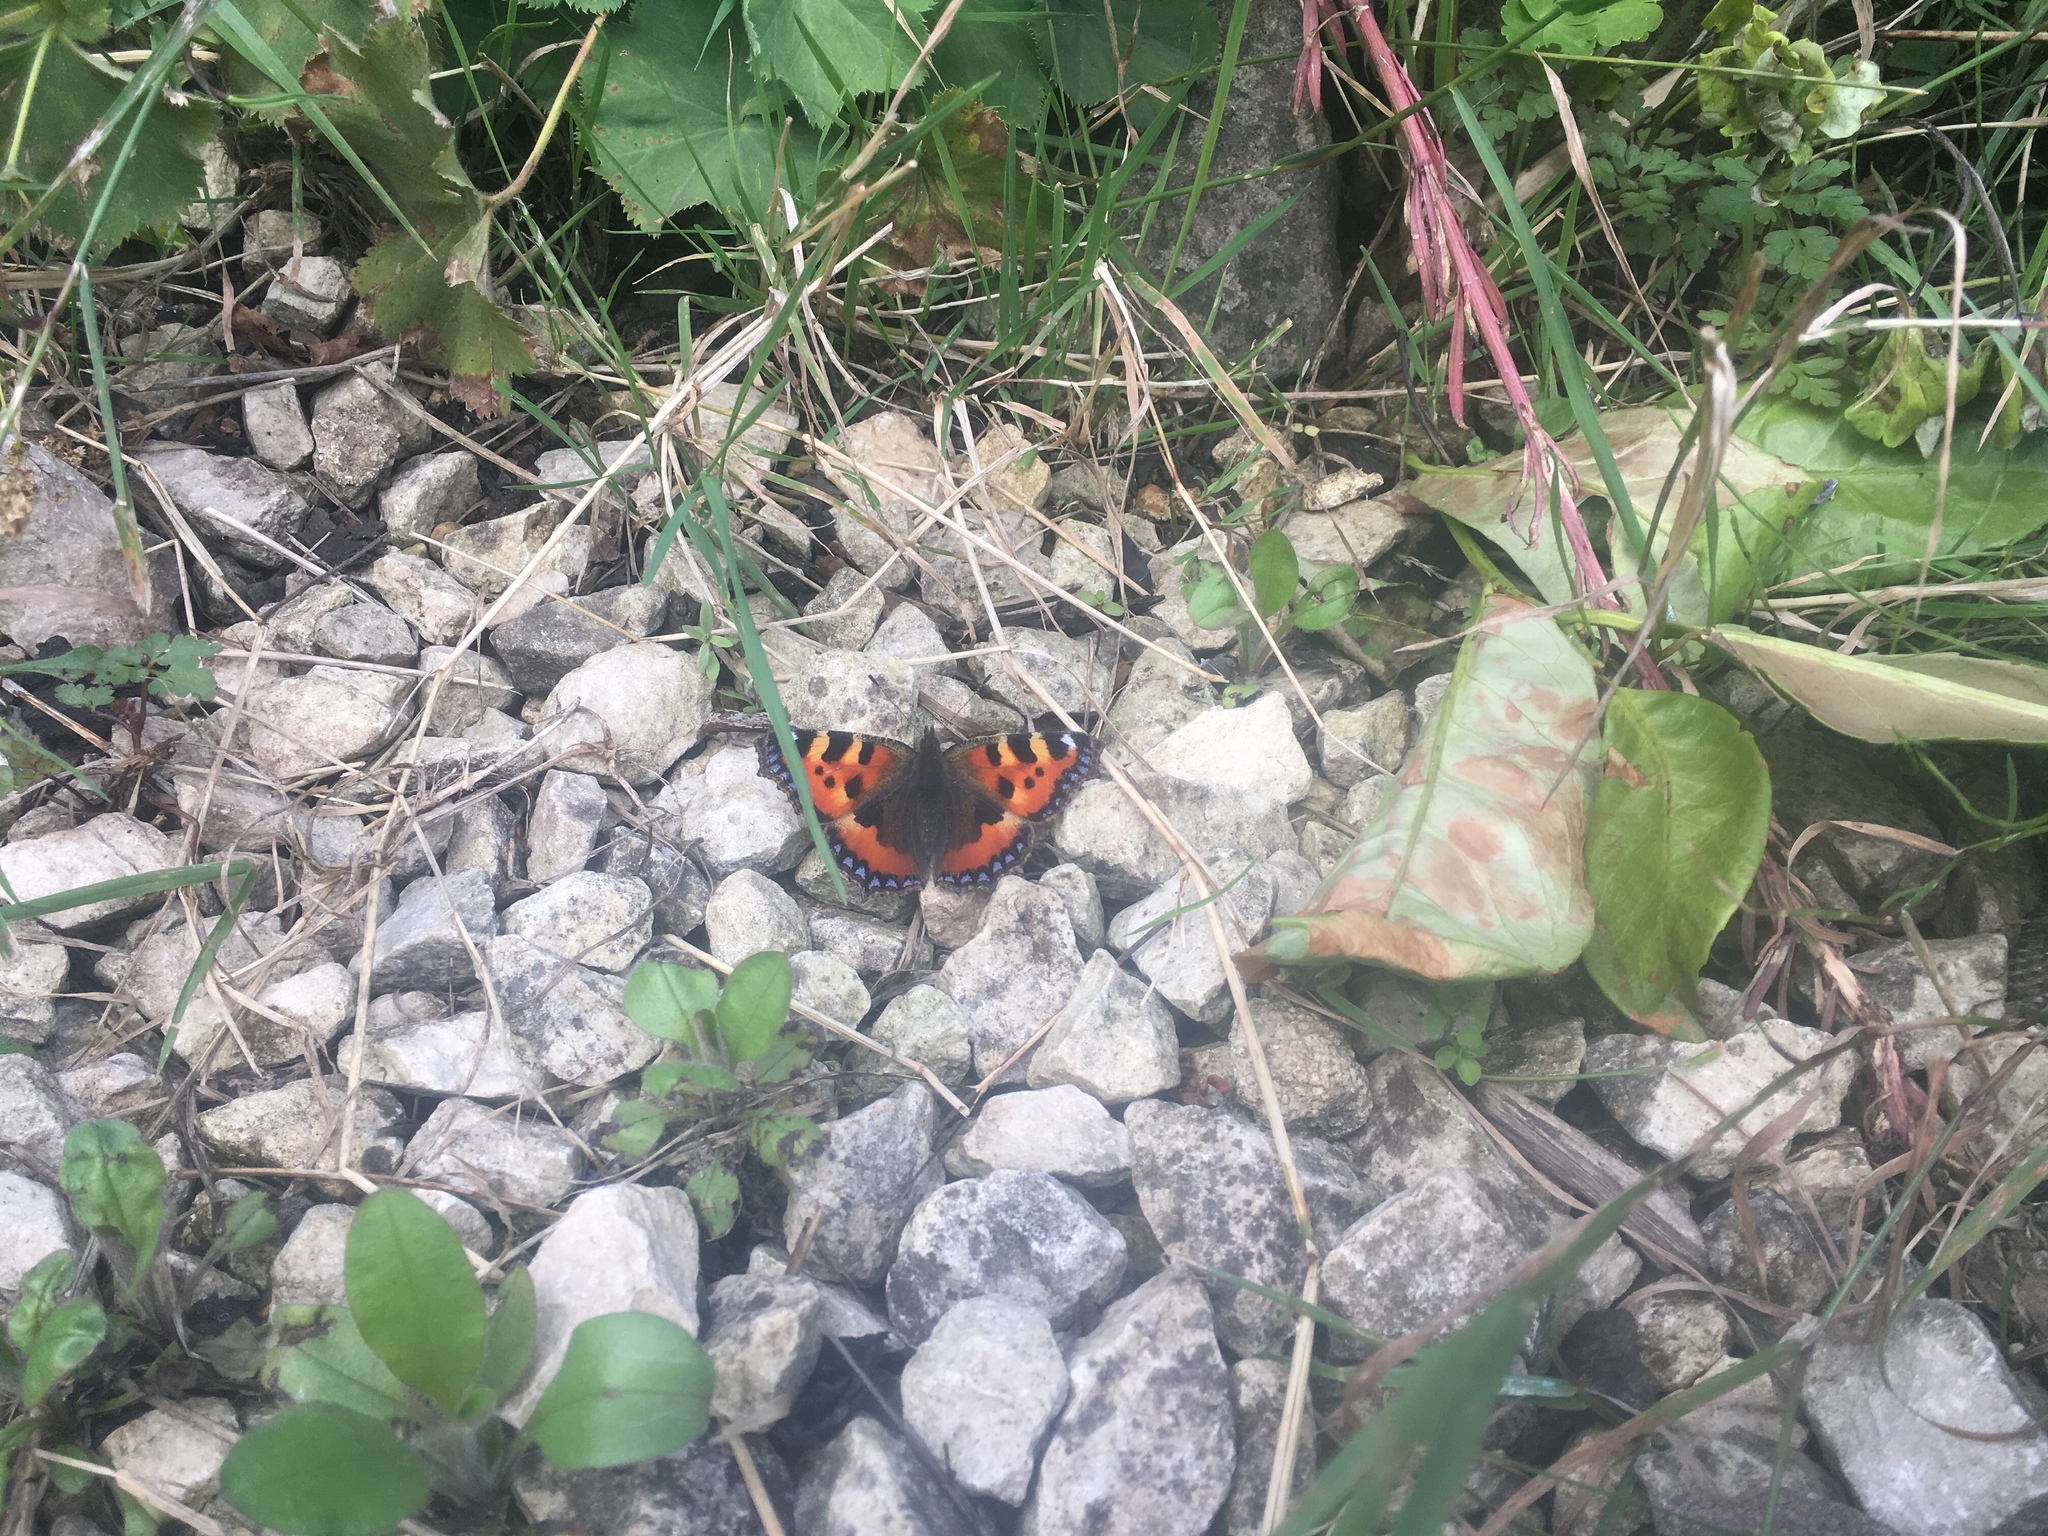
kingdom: Animalia
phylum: Arthropoda
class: Insecta
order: Lepidoptera
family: Nymphalidae
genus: Aglais
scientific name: Aglais urticae
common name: Small tortoiseshell
